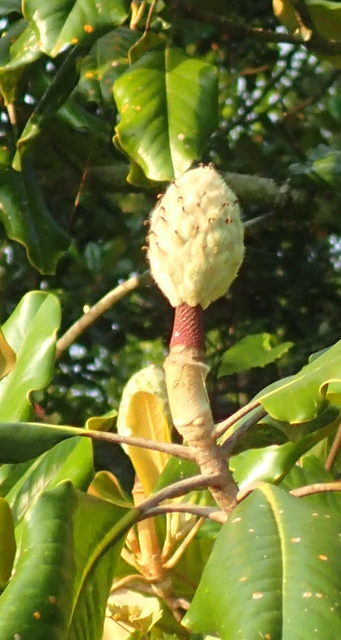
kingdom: Plantae
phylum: Tracheophyta
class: Magnoliopsida
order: Magnoliales
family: Magnoliaceae
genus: Magnolia
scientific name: Magnolia grandiflora
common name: Southern magnolia
